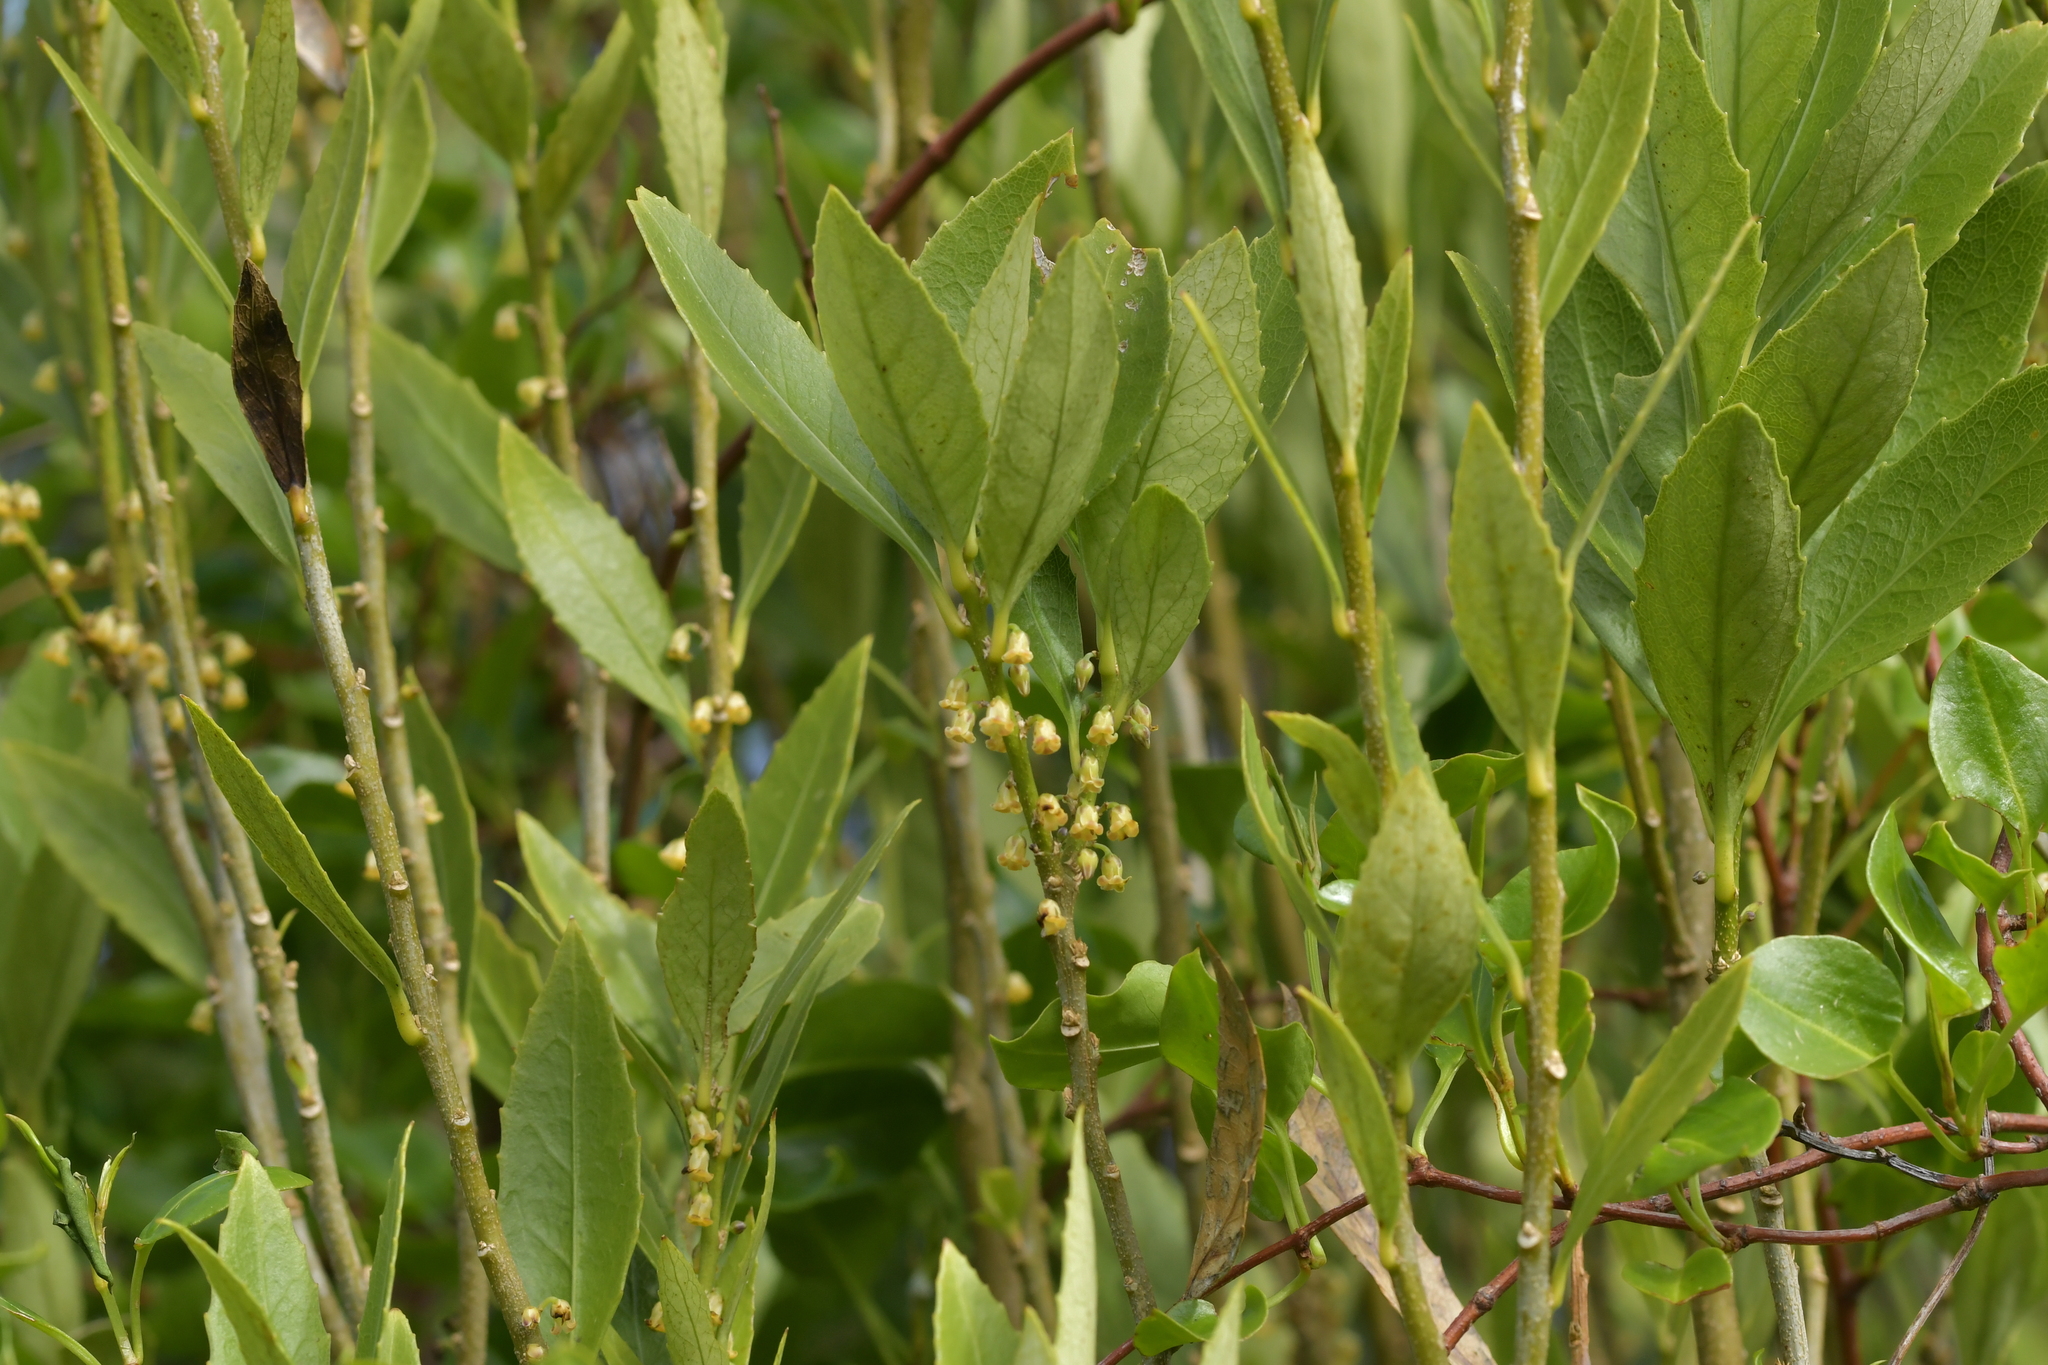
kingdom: Plantae
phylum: Tracheophyta
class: Magnoliopsida
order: Malpighiales
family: Violaceae
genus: Melicytus
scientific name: Melicytus chathamicus
